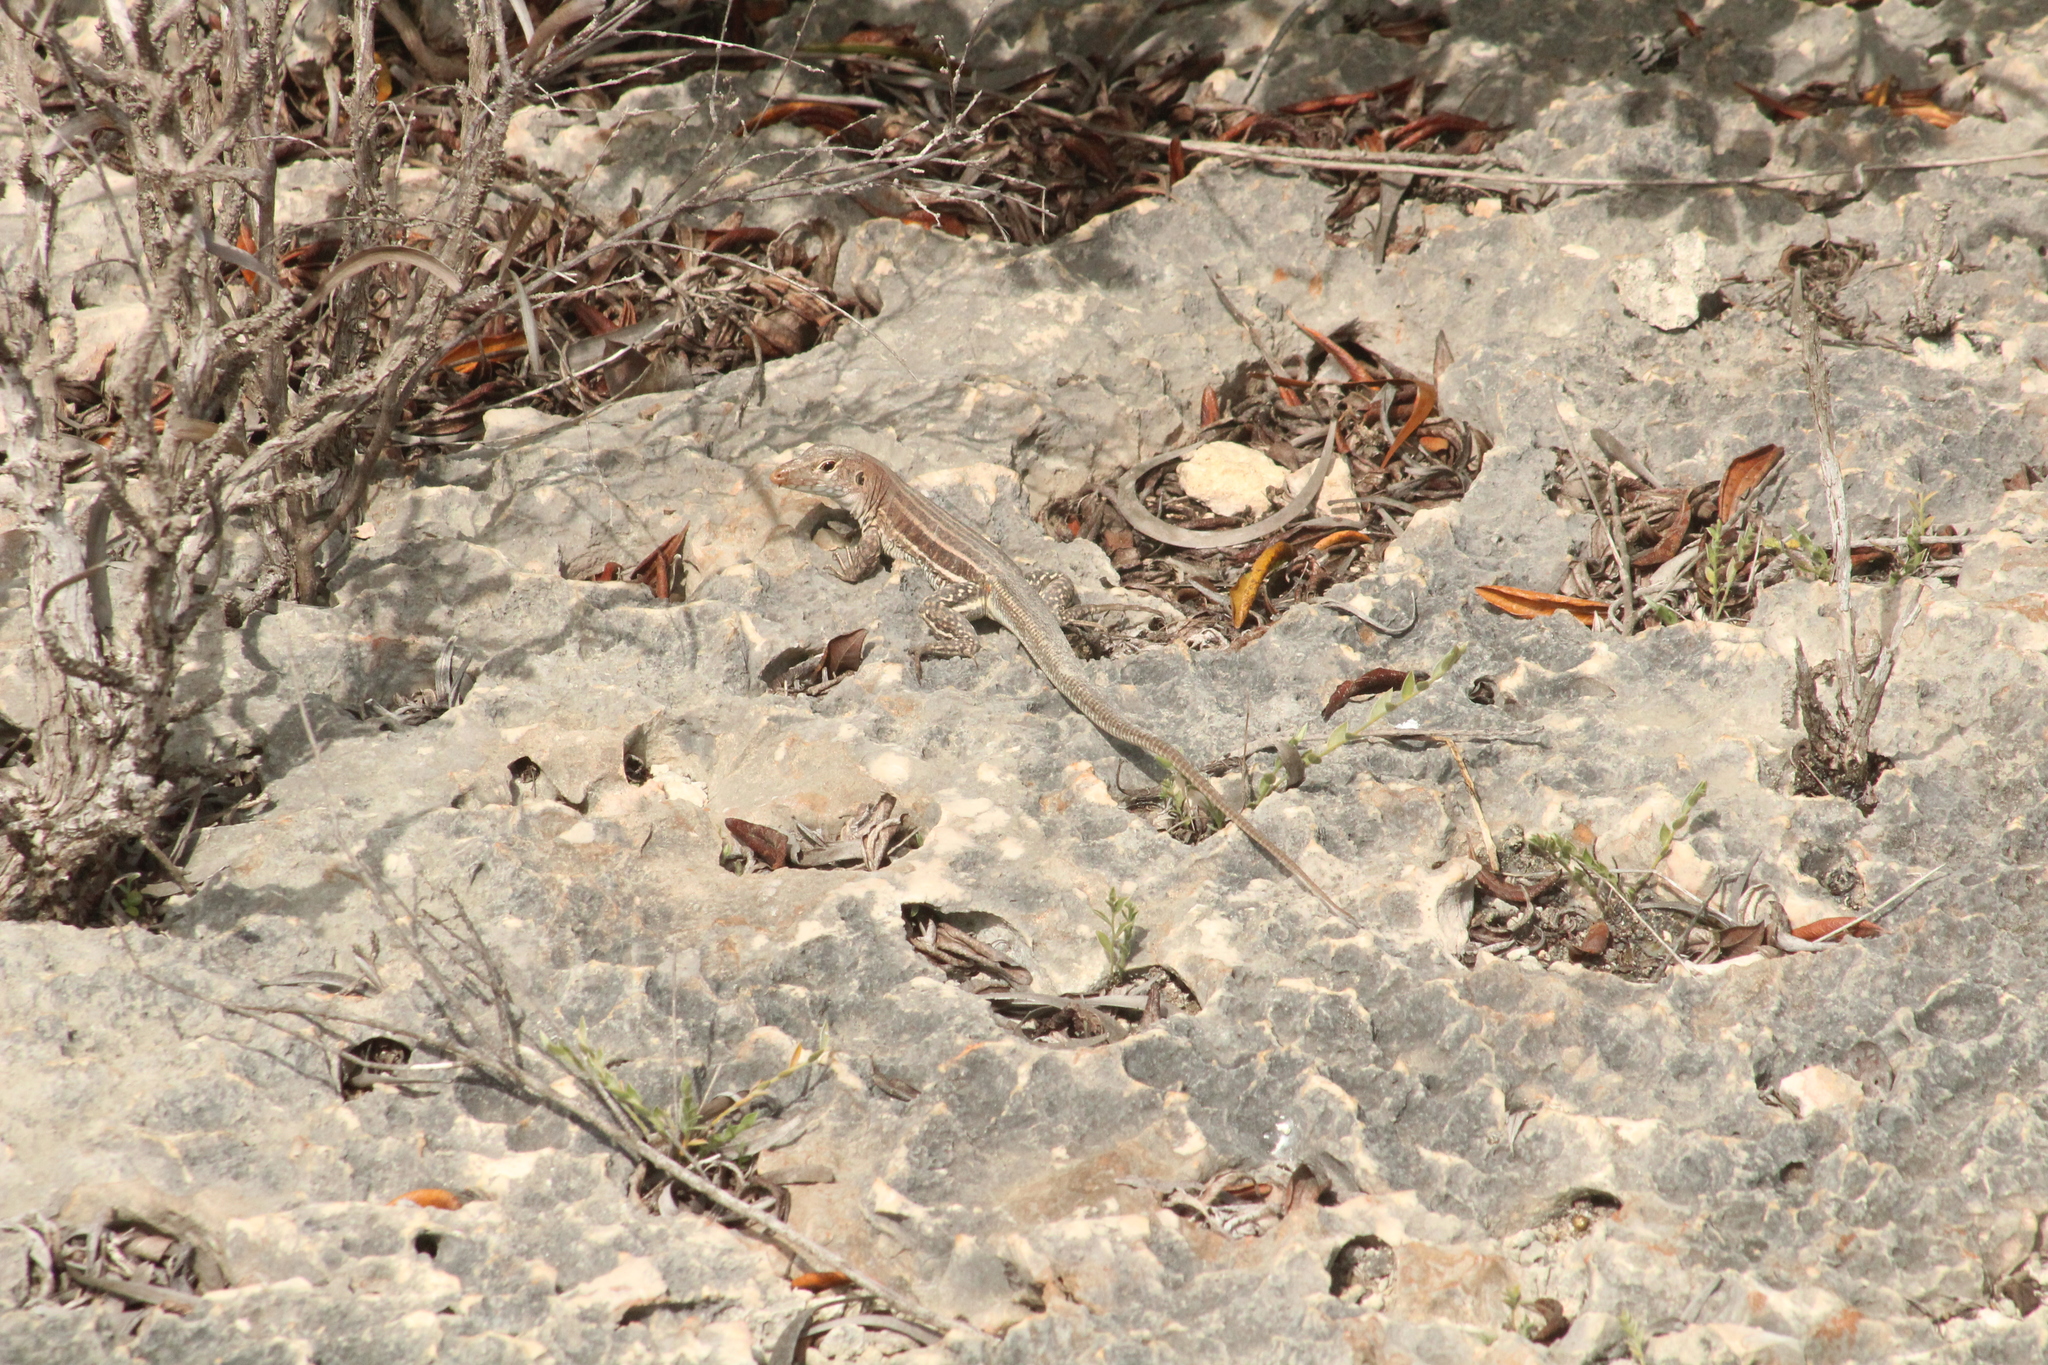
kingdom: Animalia
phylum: Chordata
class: Squamata
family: Teiidae
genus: Pholidoscelis
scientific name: Pholidoscelis plei
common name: Anguilla bank ameiva
